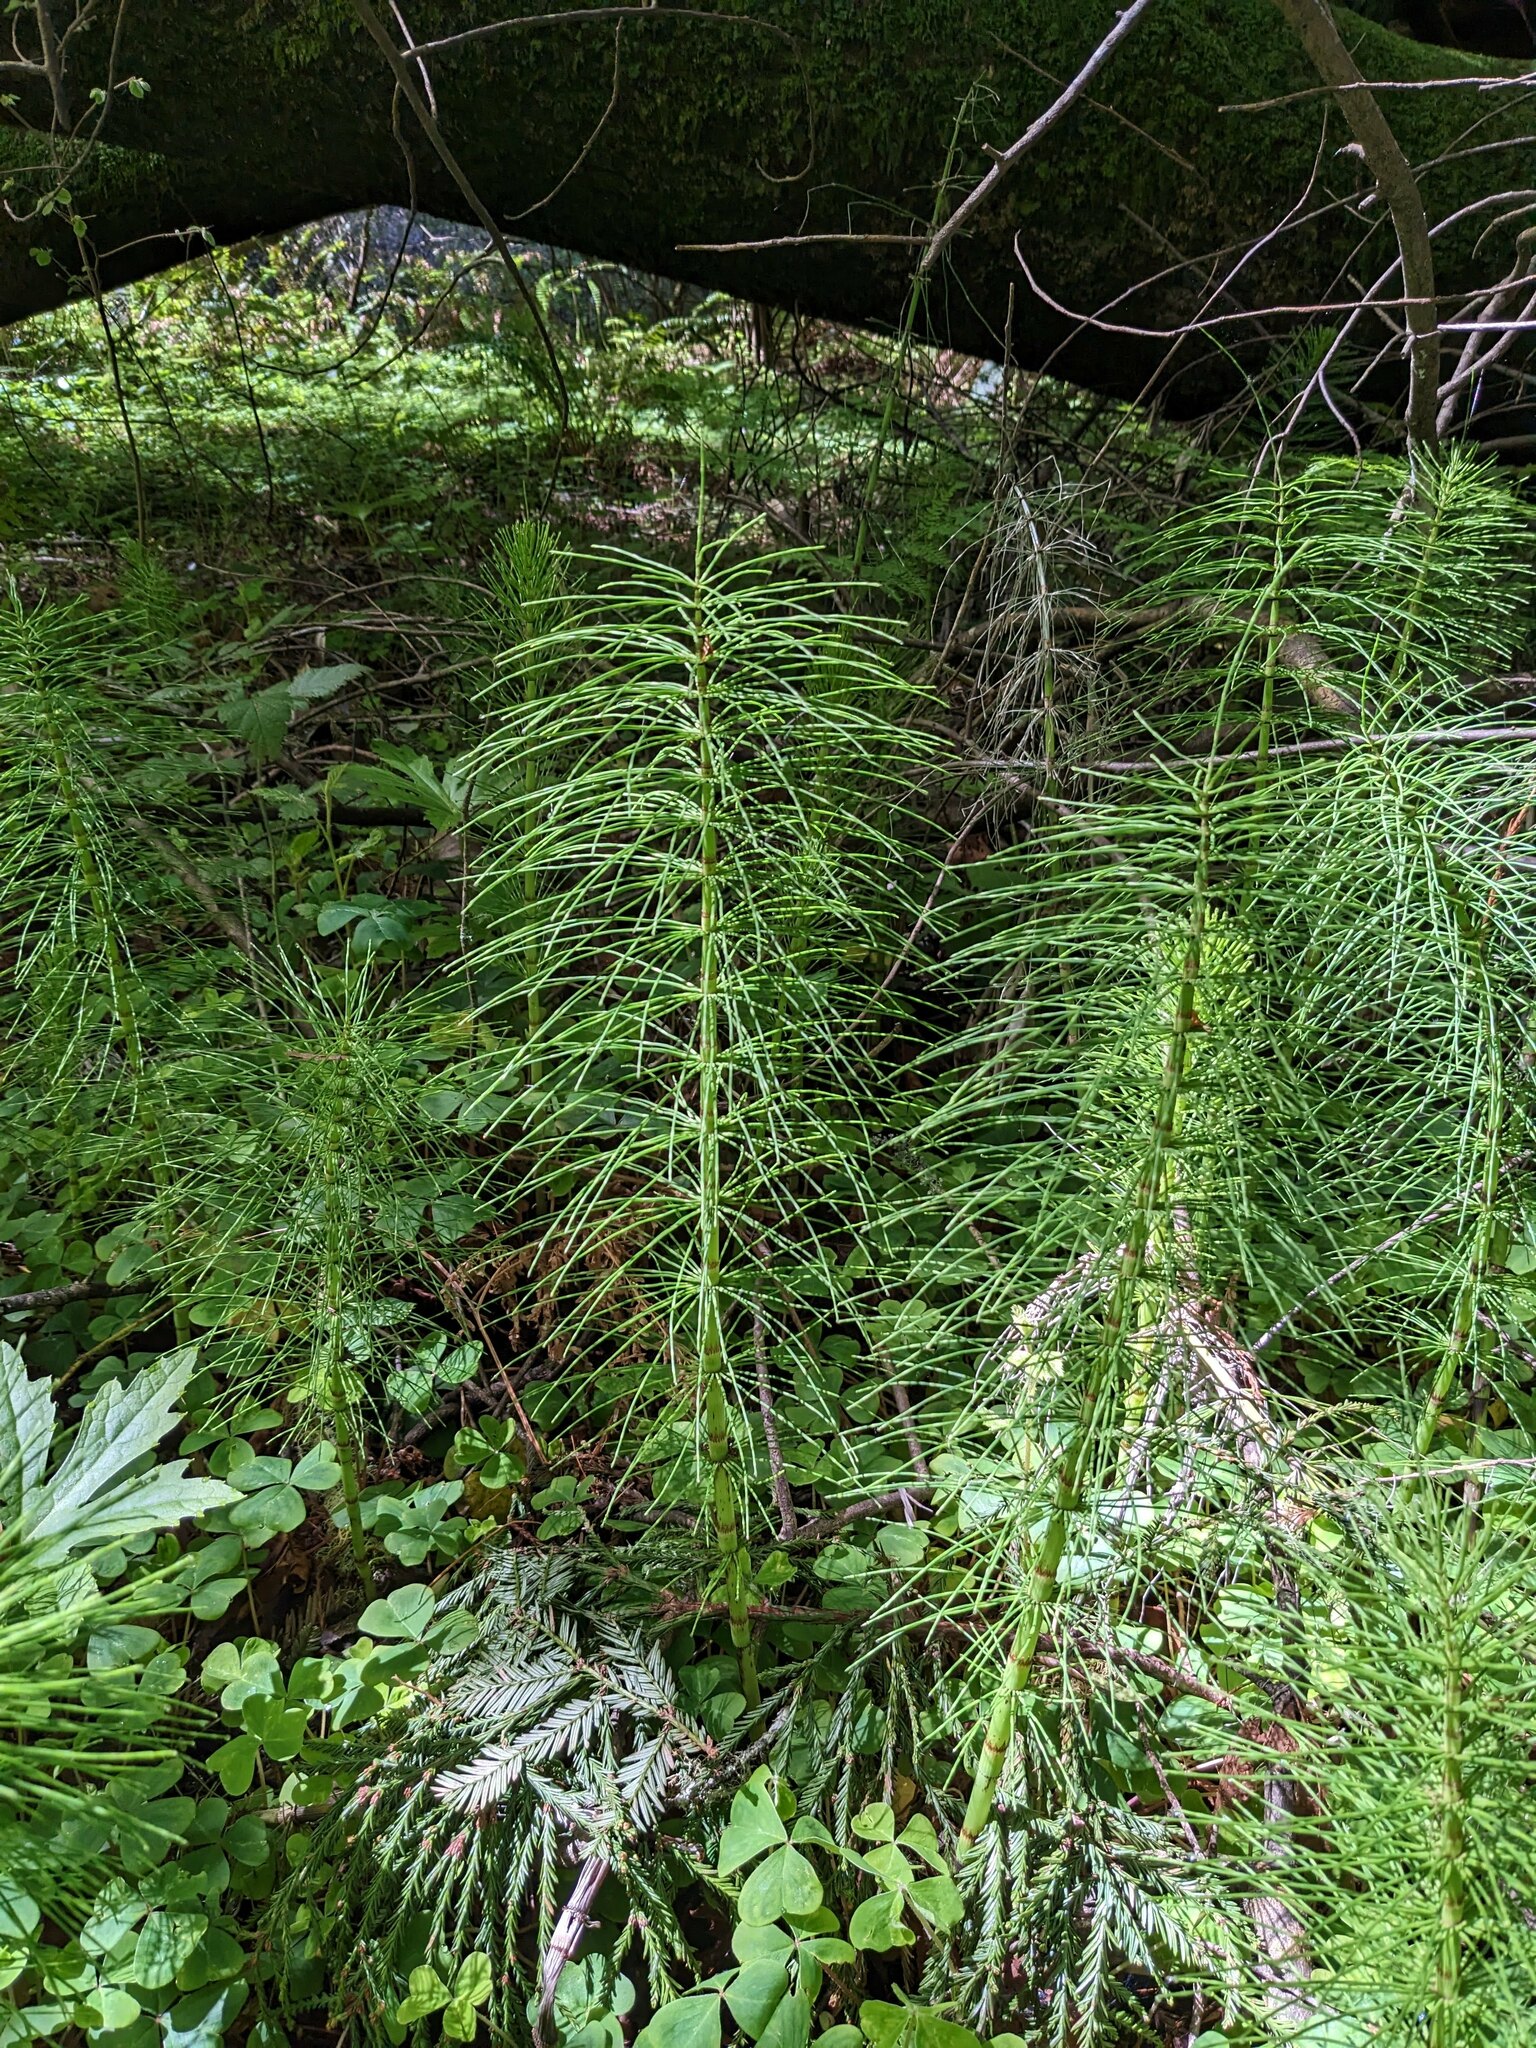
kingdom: Plantae
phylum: Tracheophyta
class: Polypodiopsida
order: Equisetales
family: Equisetaceae
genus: Equisetum
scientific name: Equisetum braunii
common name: Braun's horsetail
